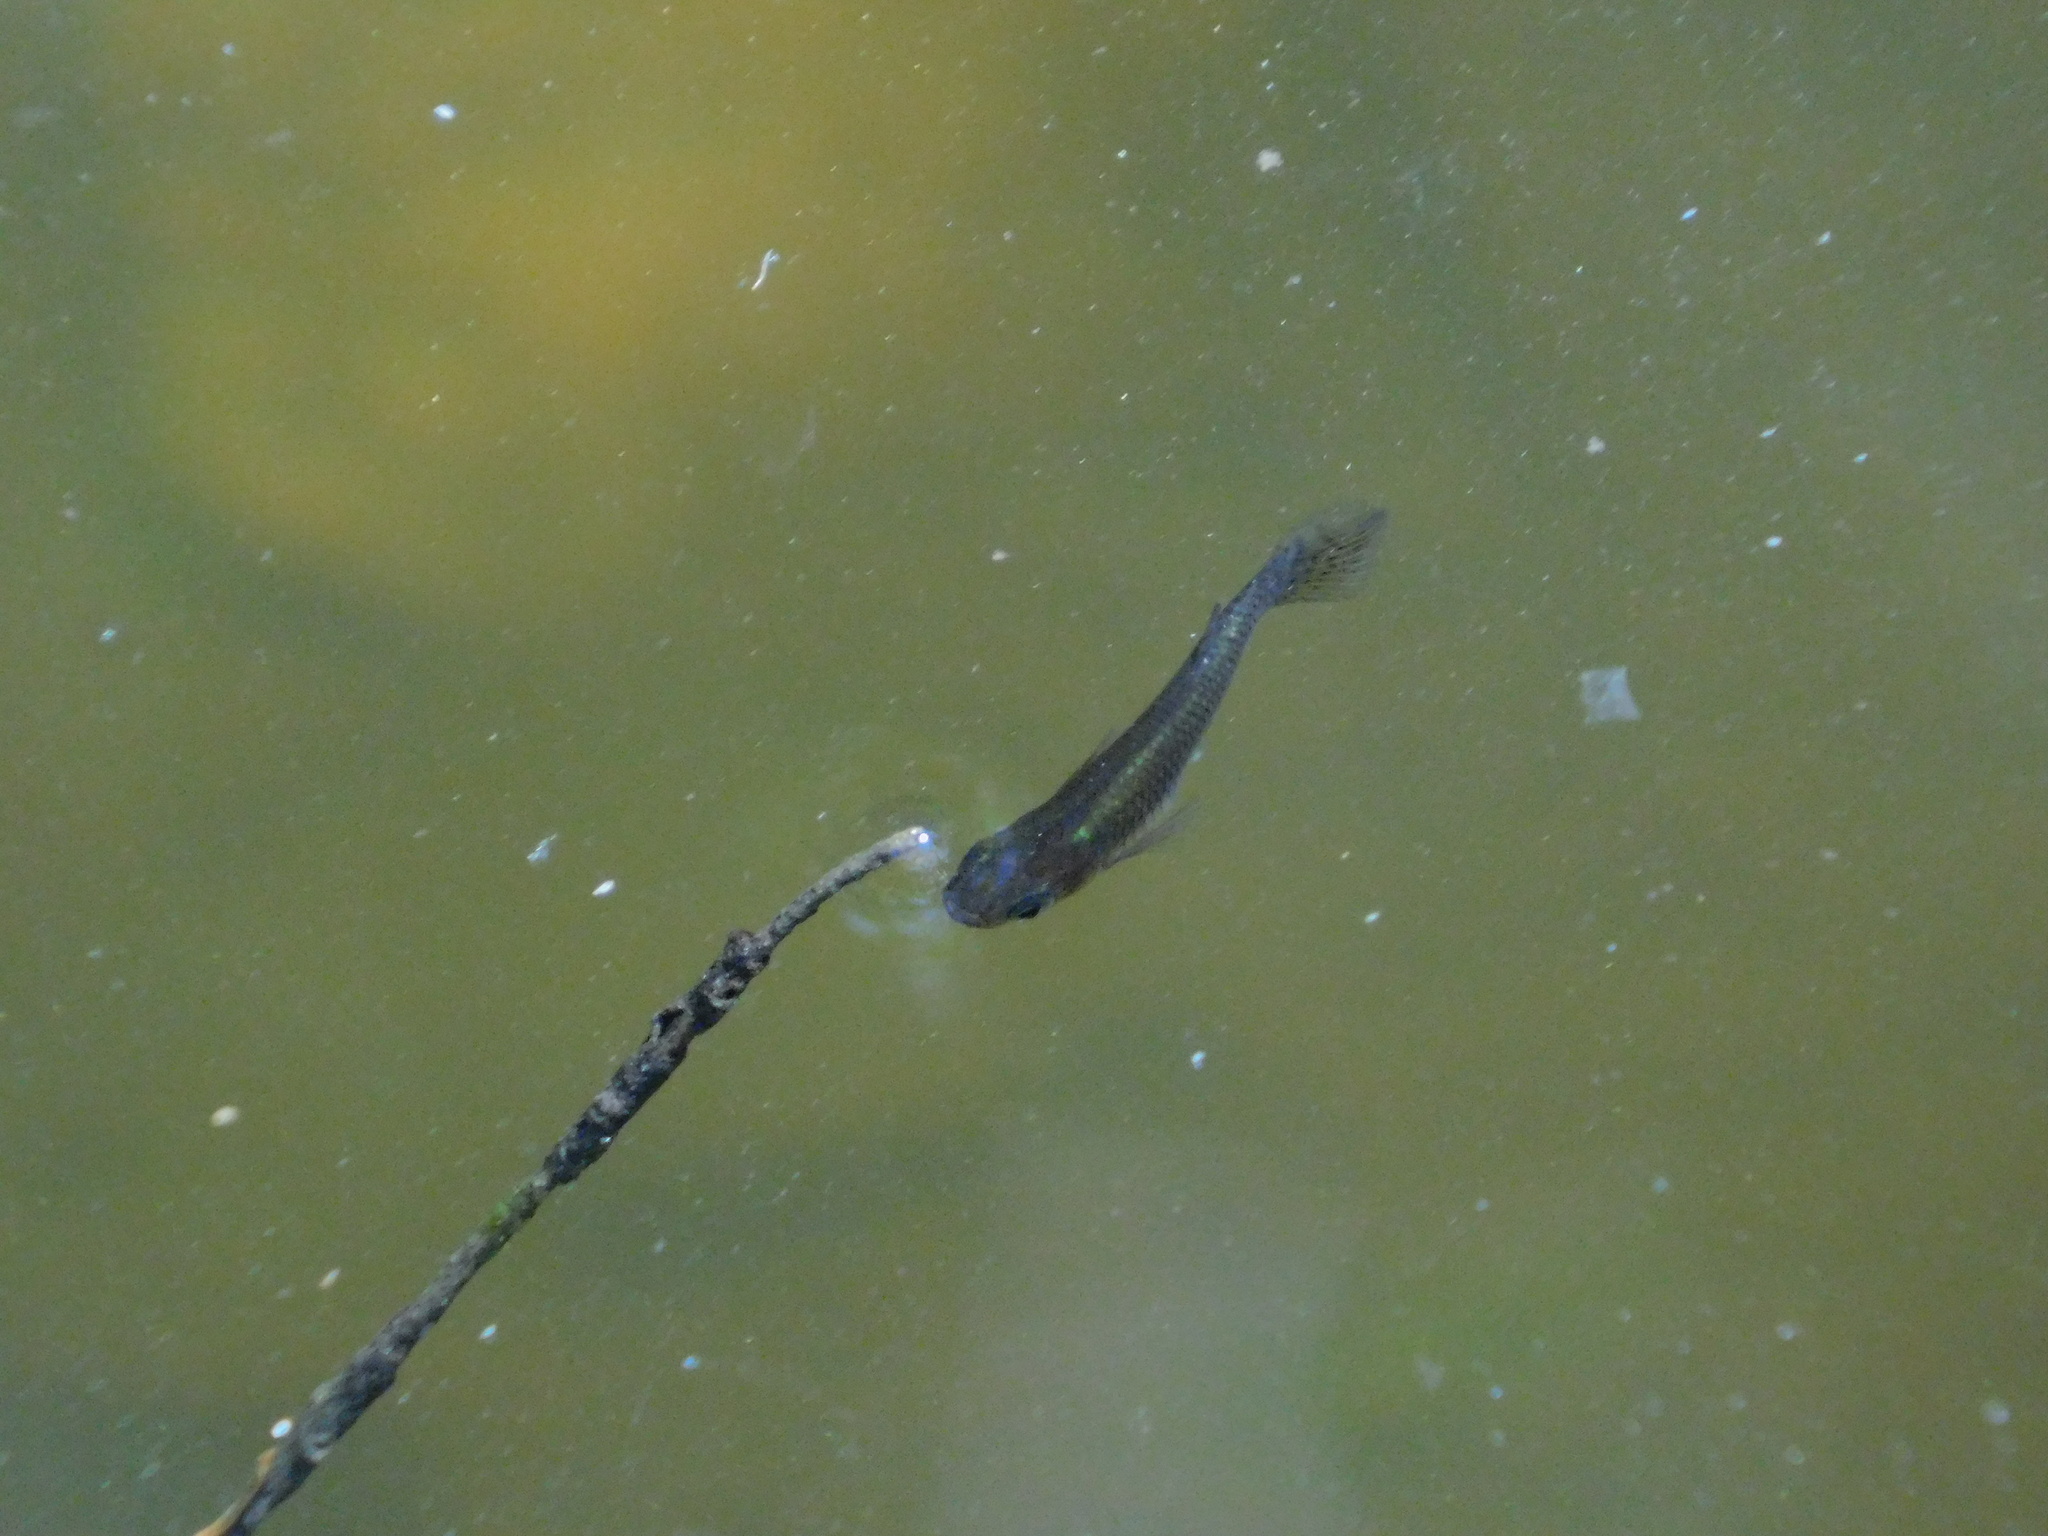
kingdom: Animalia
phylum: Chordata
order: Cyprinodontiformes
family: Poeciliidae
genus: Gambusia
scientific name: Gambusia holbrooki
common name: Eastern mosquitofish
